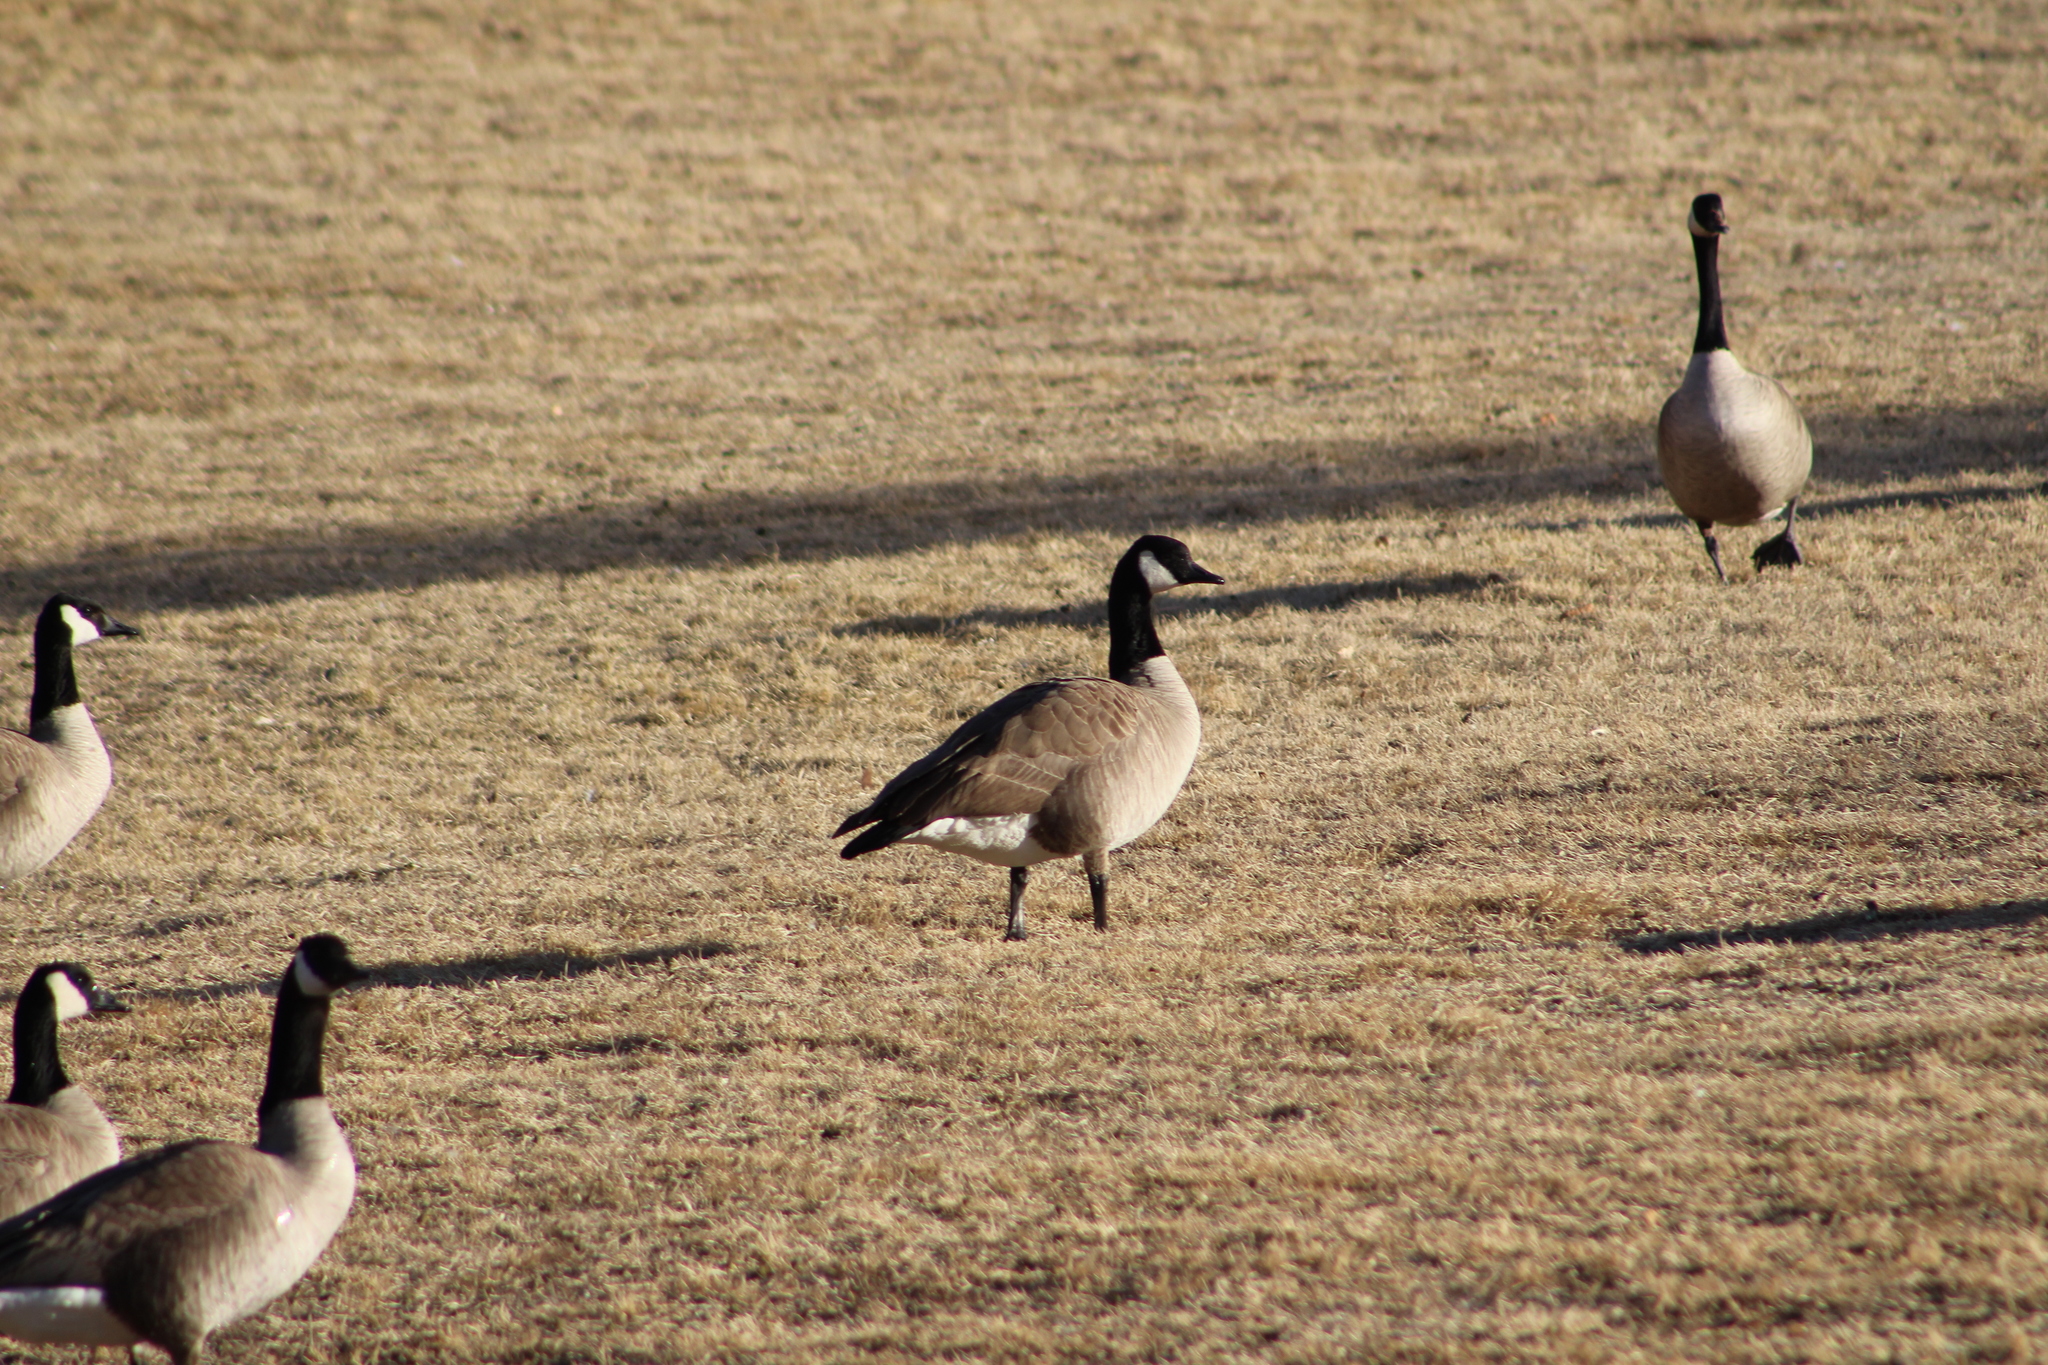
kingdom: Animalia
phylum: Chordata
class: Aves
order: Anseriformes
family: Anatidae
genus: Branta
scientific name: Branta canadensis
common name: Canada goose
